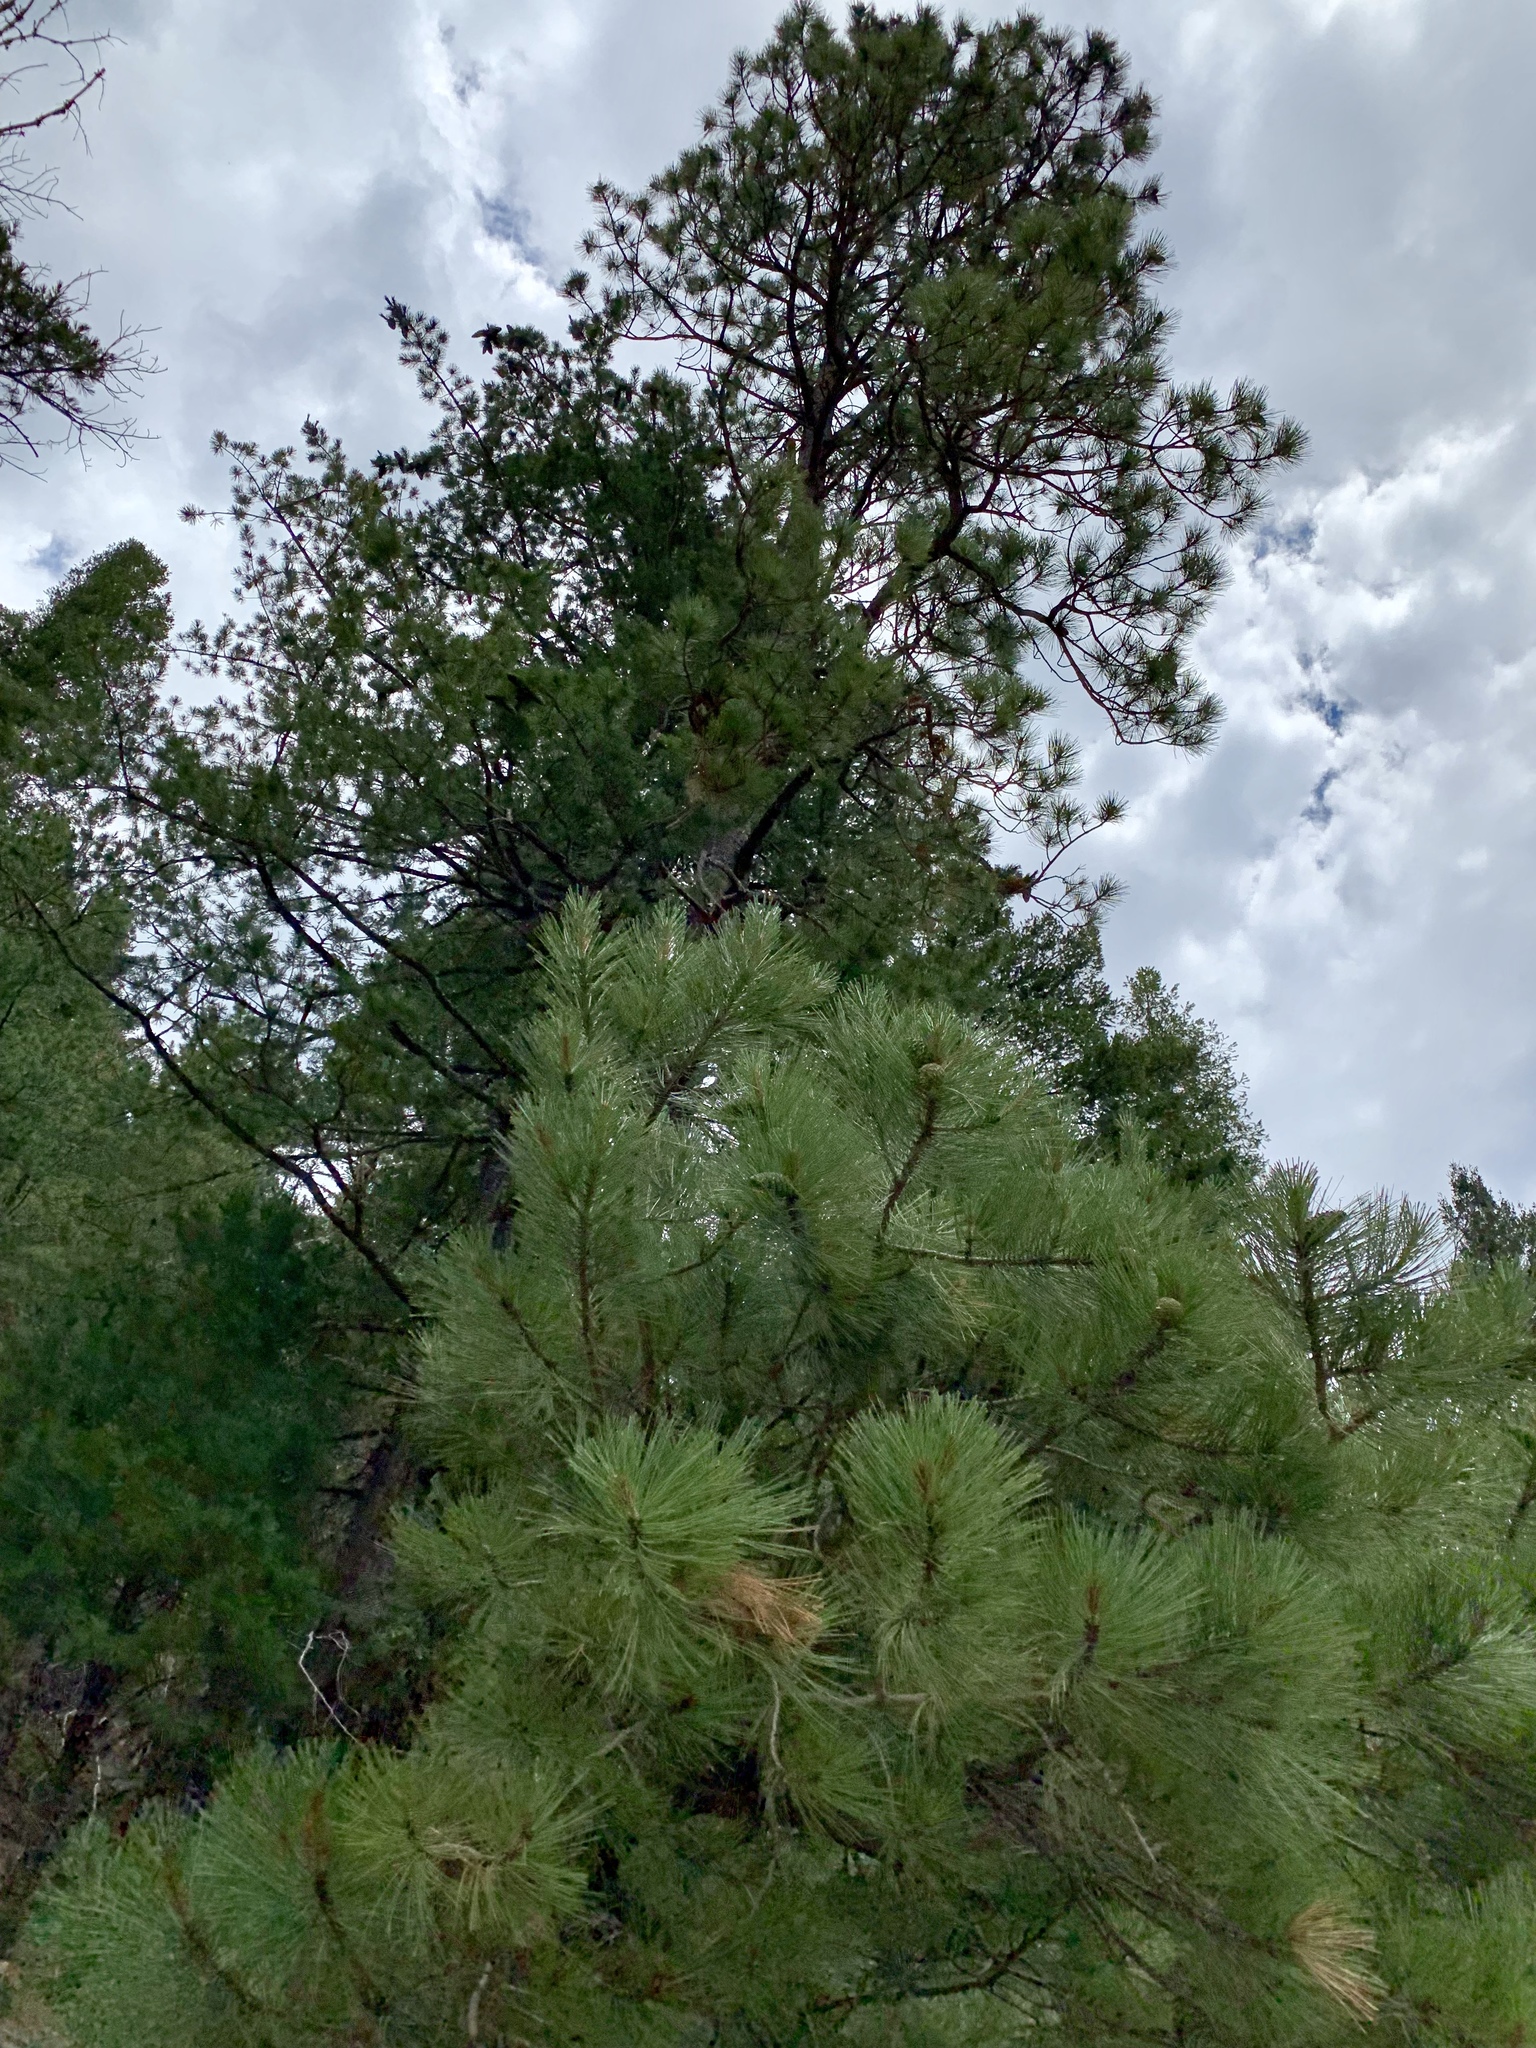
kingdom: Plantae
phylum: Tracheophyta
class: Pinopsida
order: Pinales
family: Pinaceae
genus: Pinus
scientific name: Pinus ponderosa
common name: Western yellow-pine
